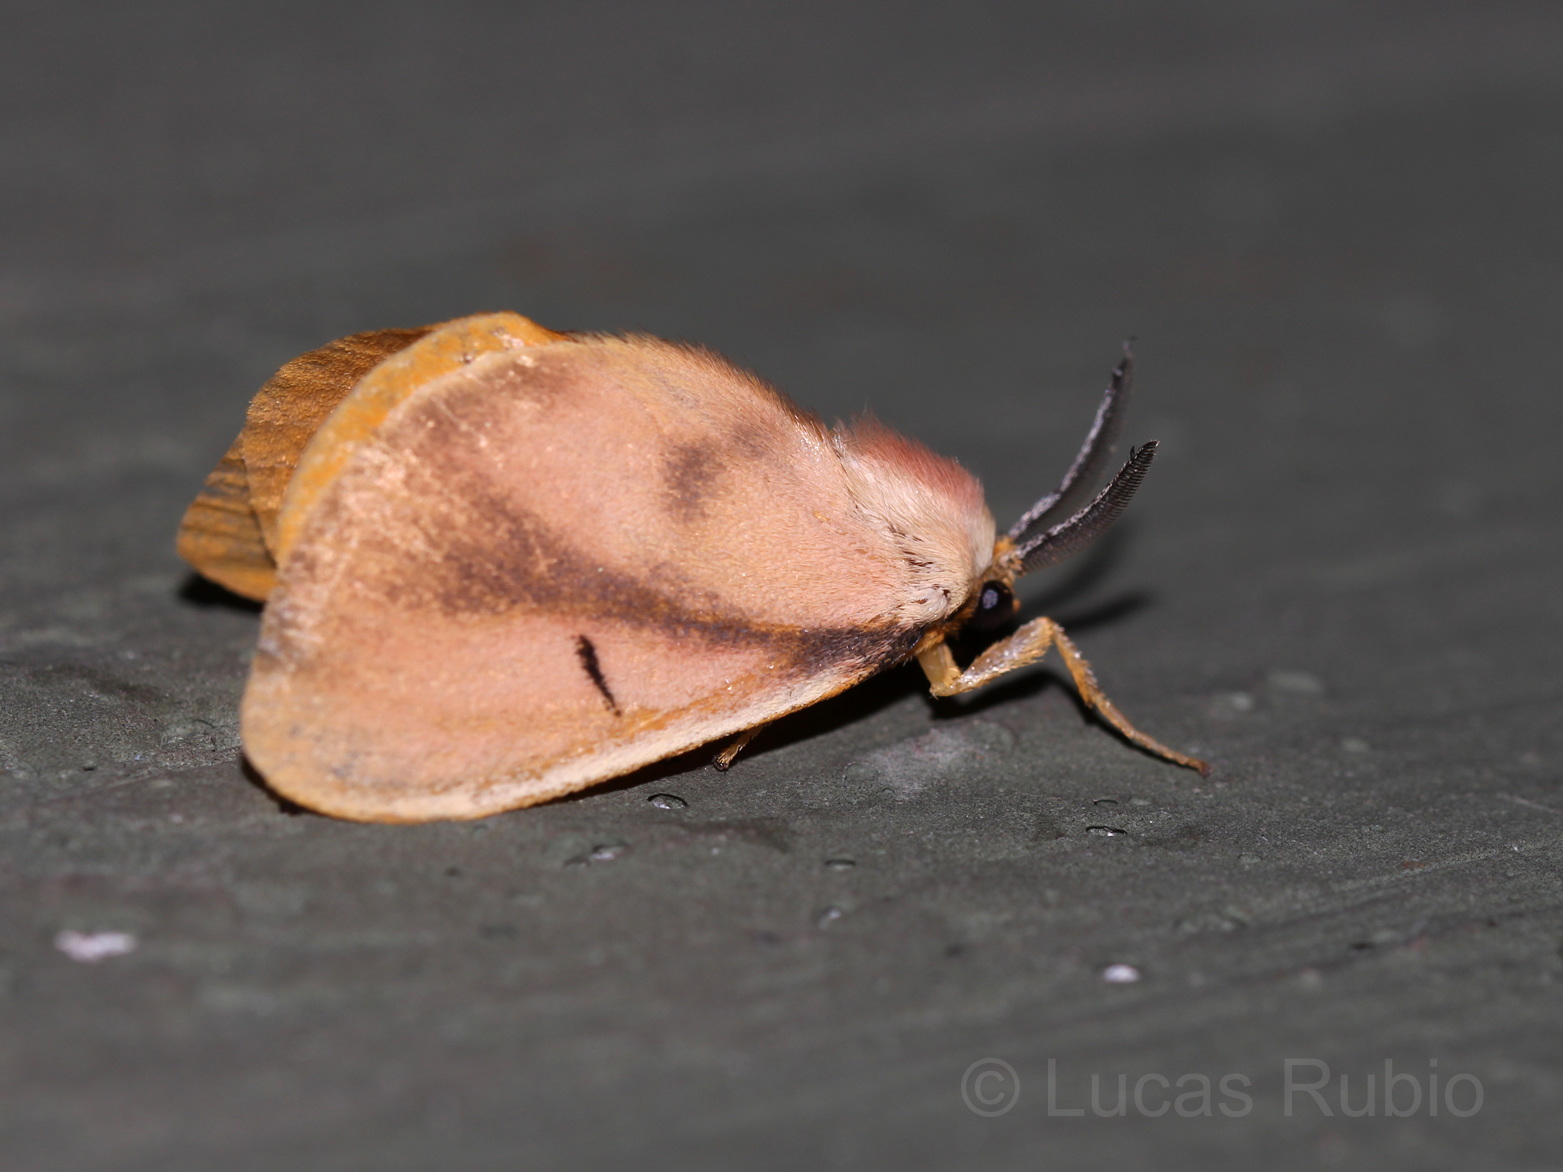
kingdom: Animalia
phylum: Arthropoda
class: Insecta
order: Lepidoptera
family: Dalceridae
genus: Dalcerina
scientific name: Dalcerina tijucana
